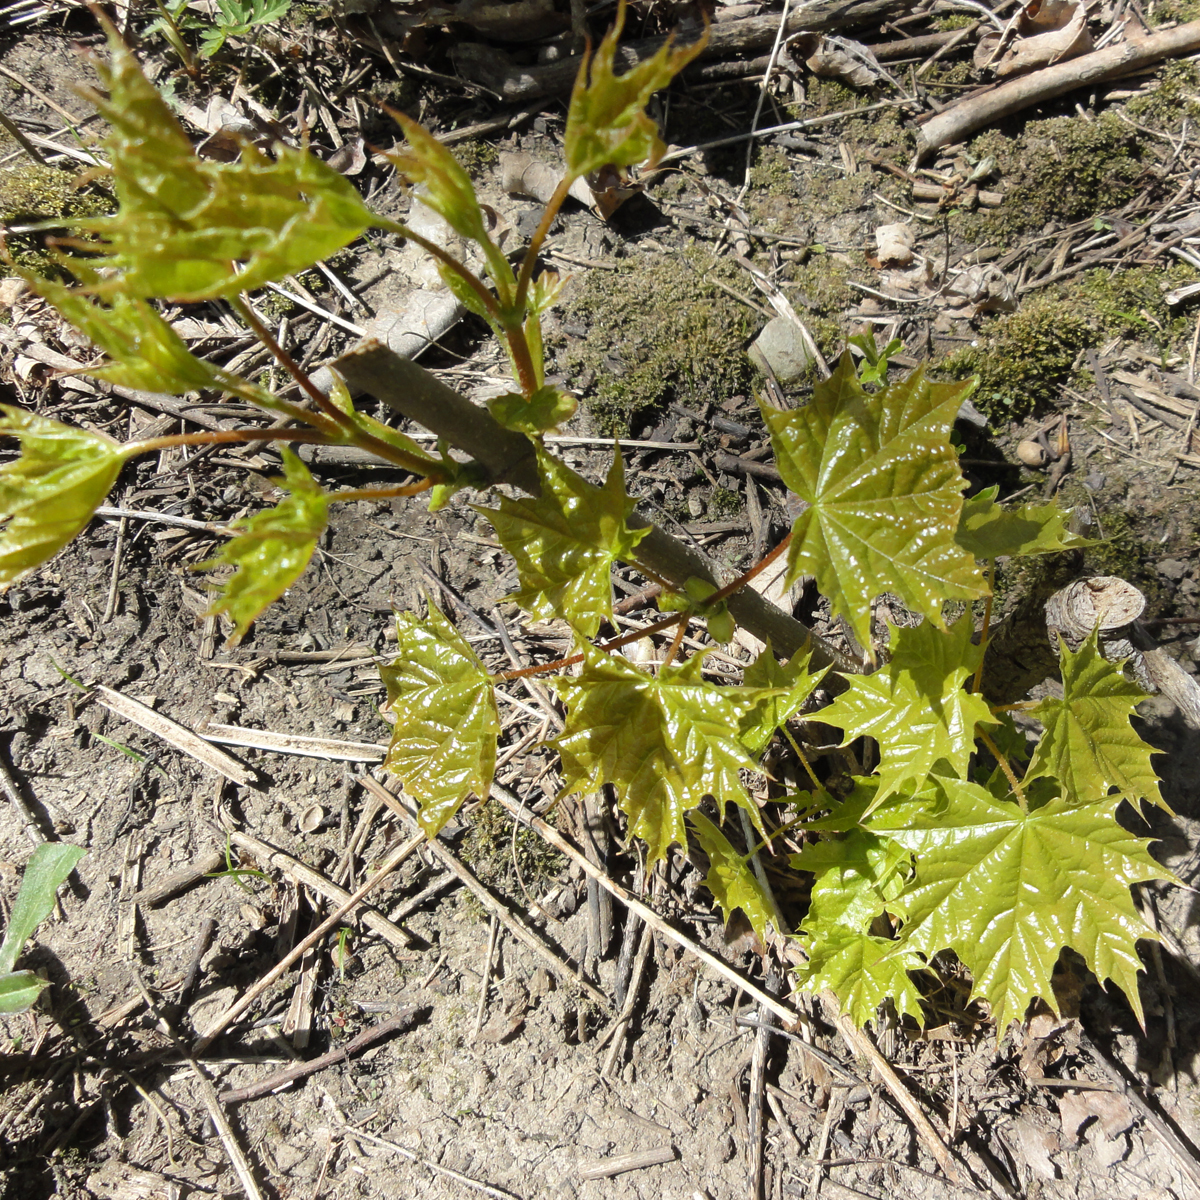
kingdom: Plantae
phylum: Tracheophyta
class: Magnoliopsida
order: Sapindales
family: Sapindaceae
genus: Acer
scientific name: Acer platanoides
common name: Norway maple
